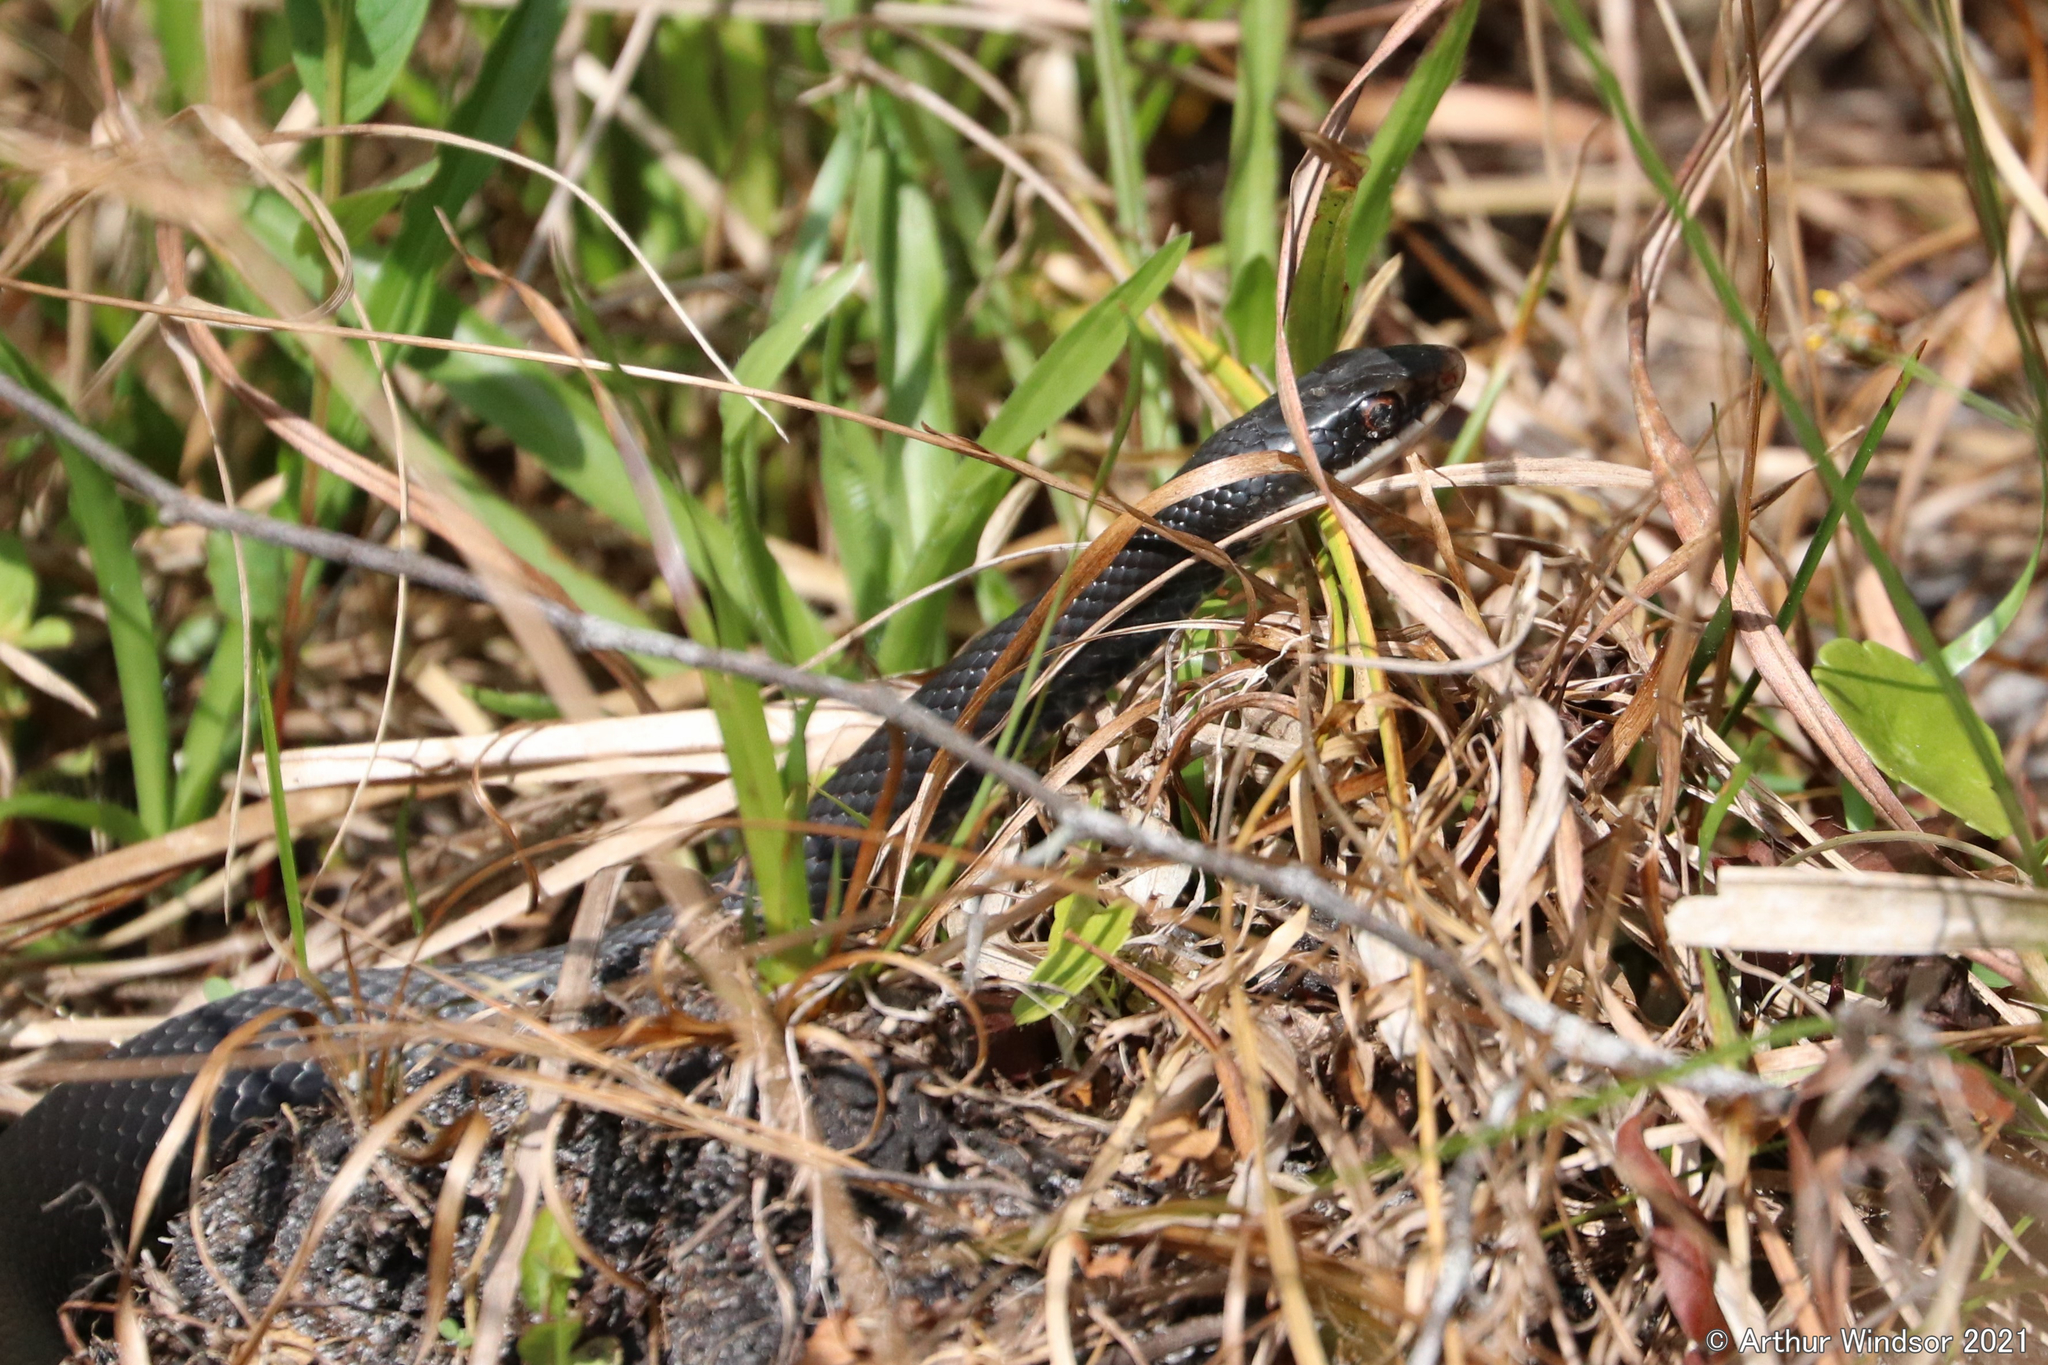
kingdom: Animalia
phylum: Chordata
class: Squamata
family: Colubridae
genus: Coluber
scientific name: Coluber constrictor
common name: Eastern racer
